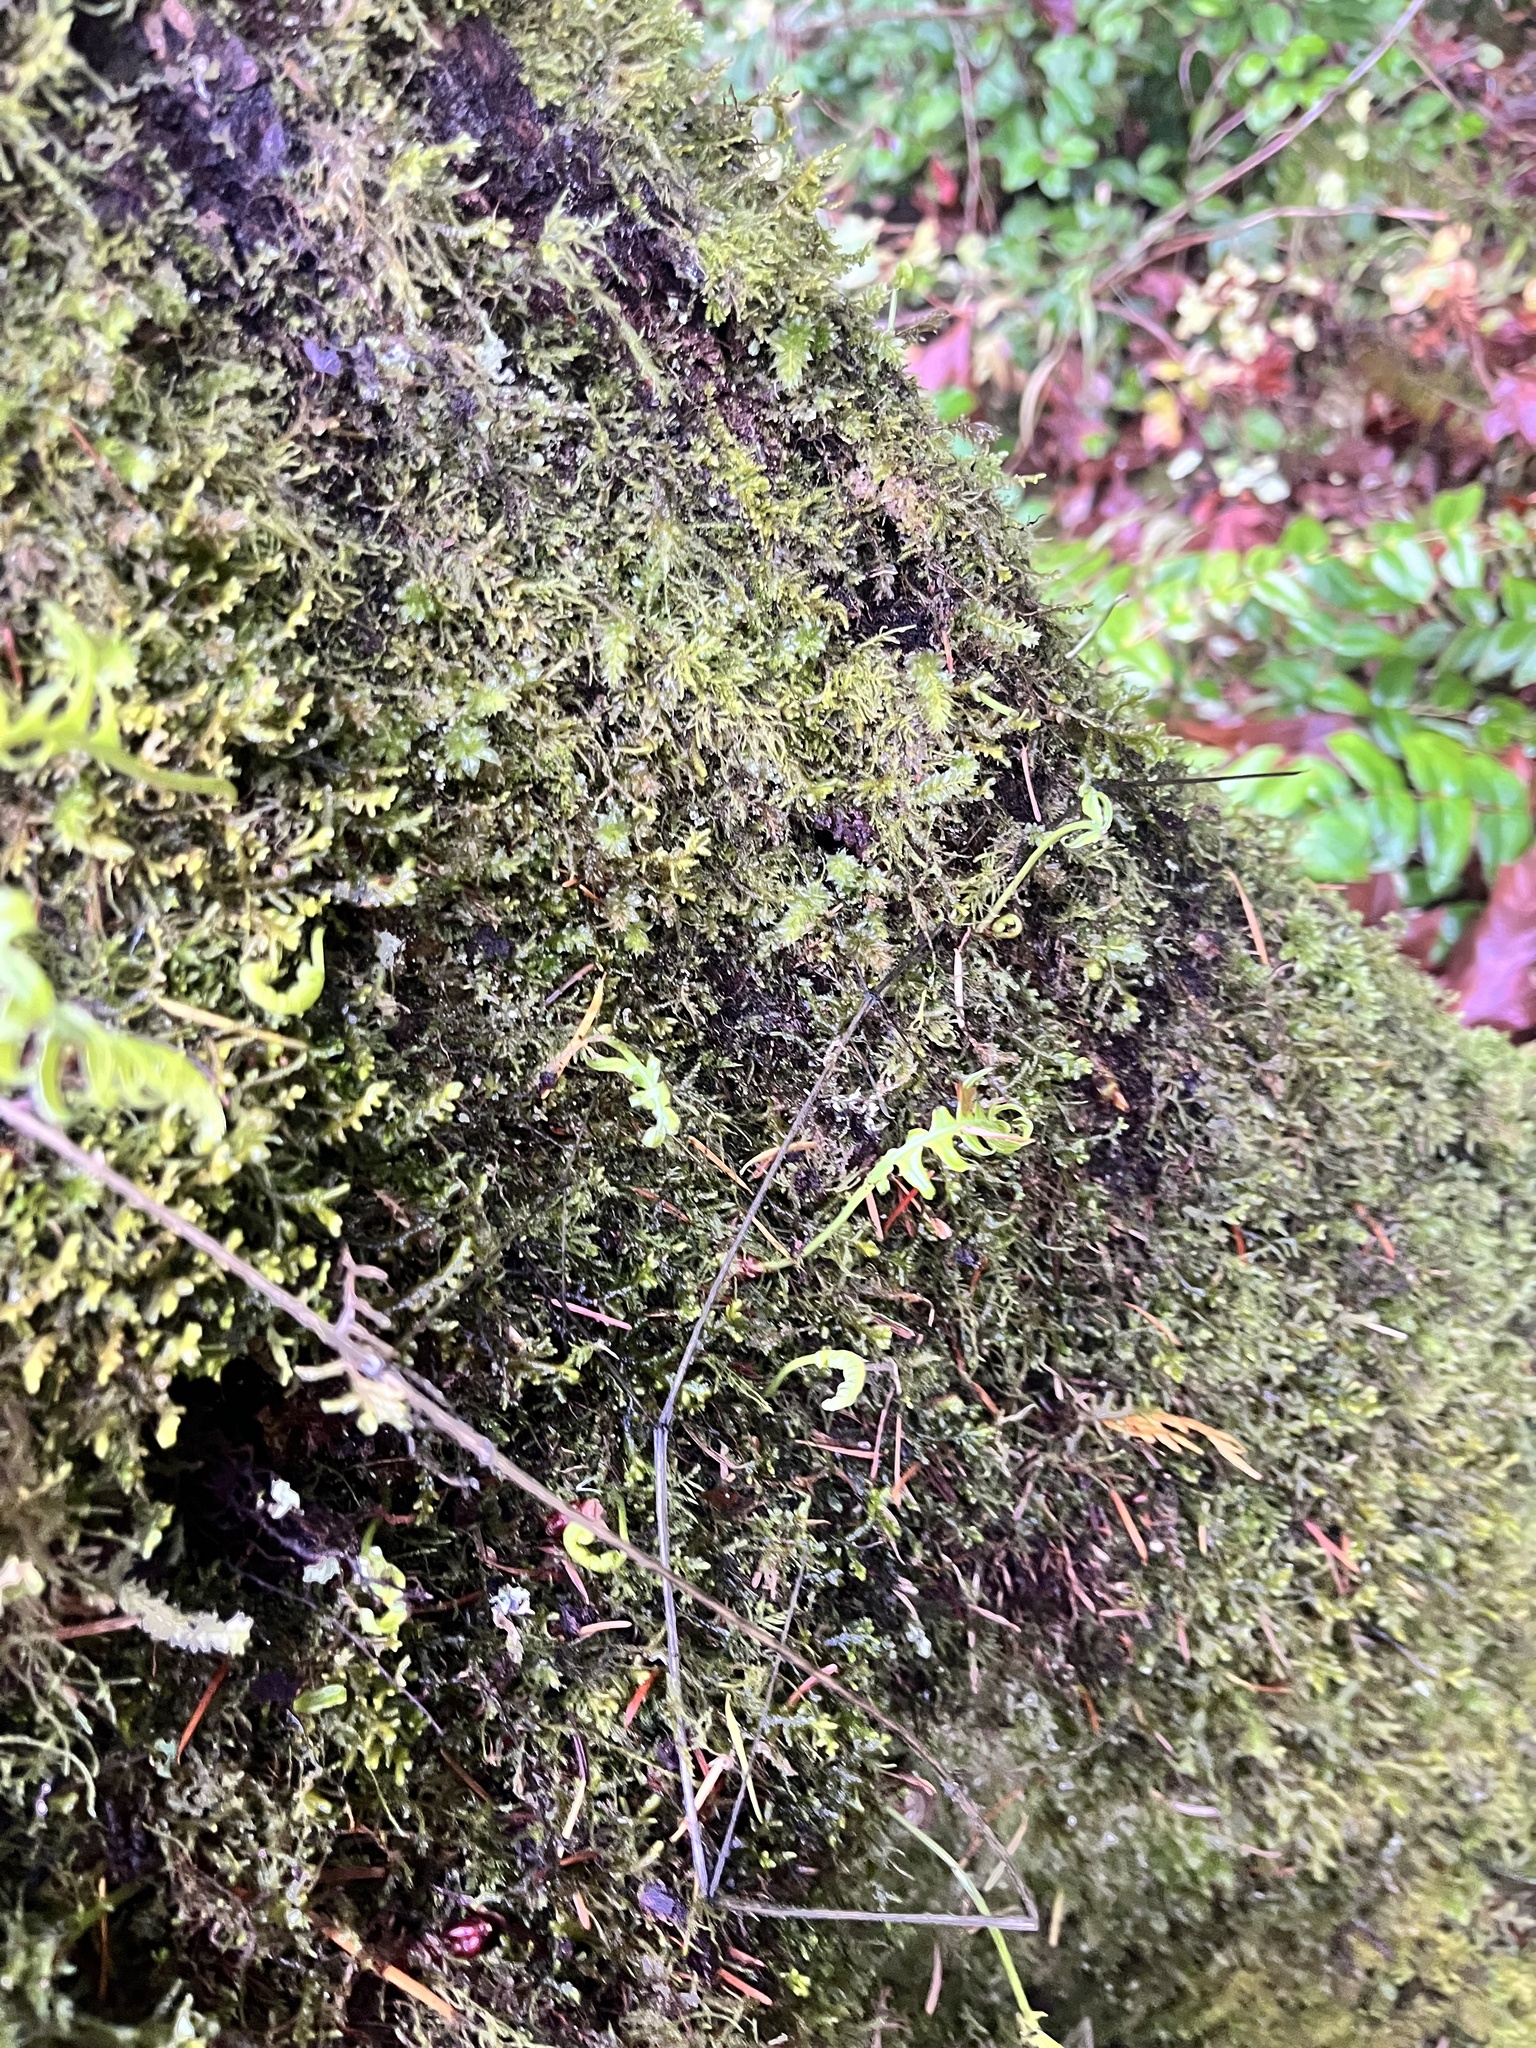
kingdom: Plantae
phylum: Tracheophyta
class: Polypodiopsida
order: Polypodiales
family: Polypodiaceae
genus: Polypodium
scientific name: Polypodium glycyrrhiza
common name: Licorice fern
